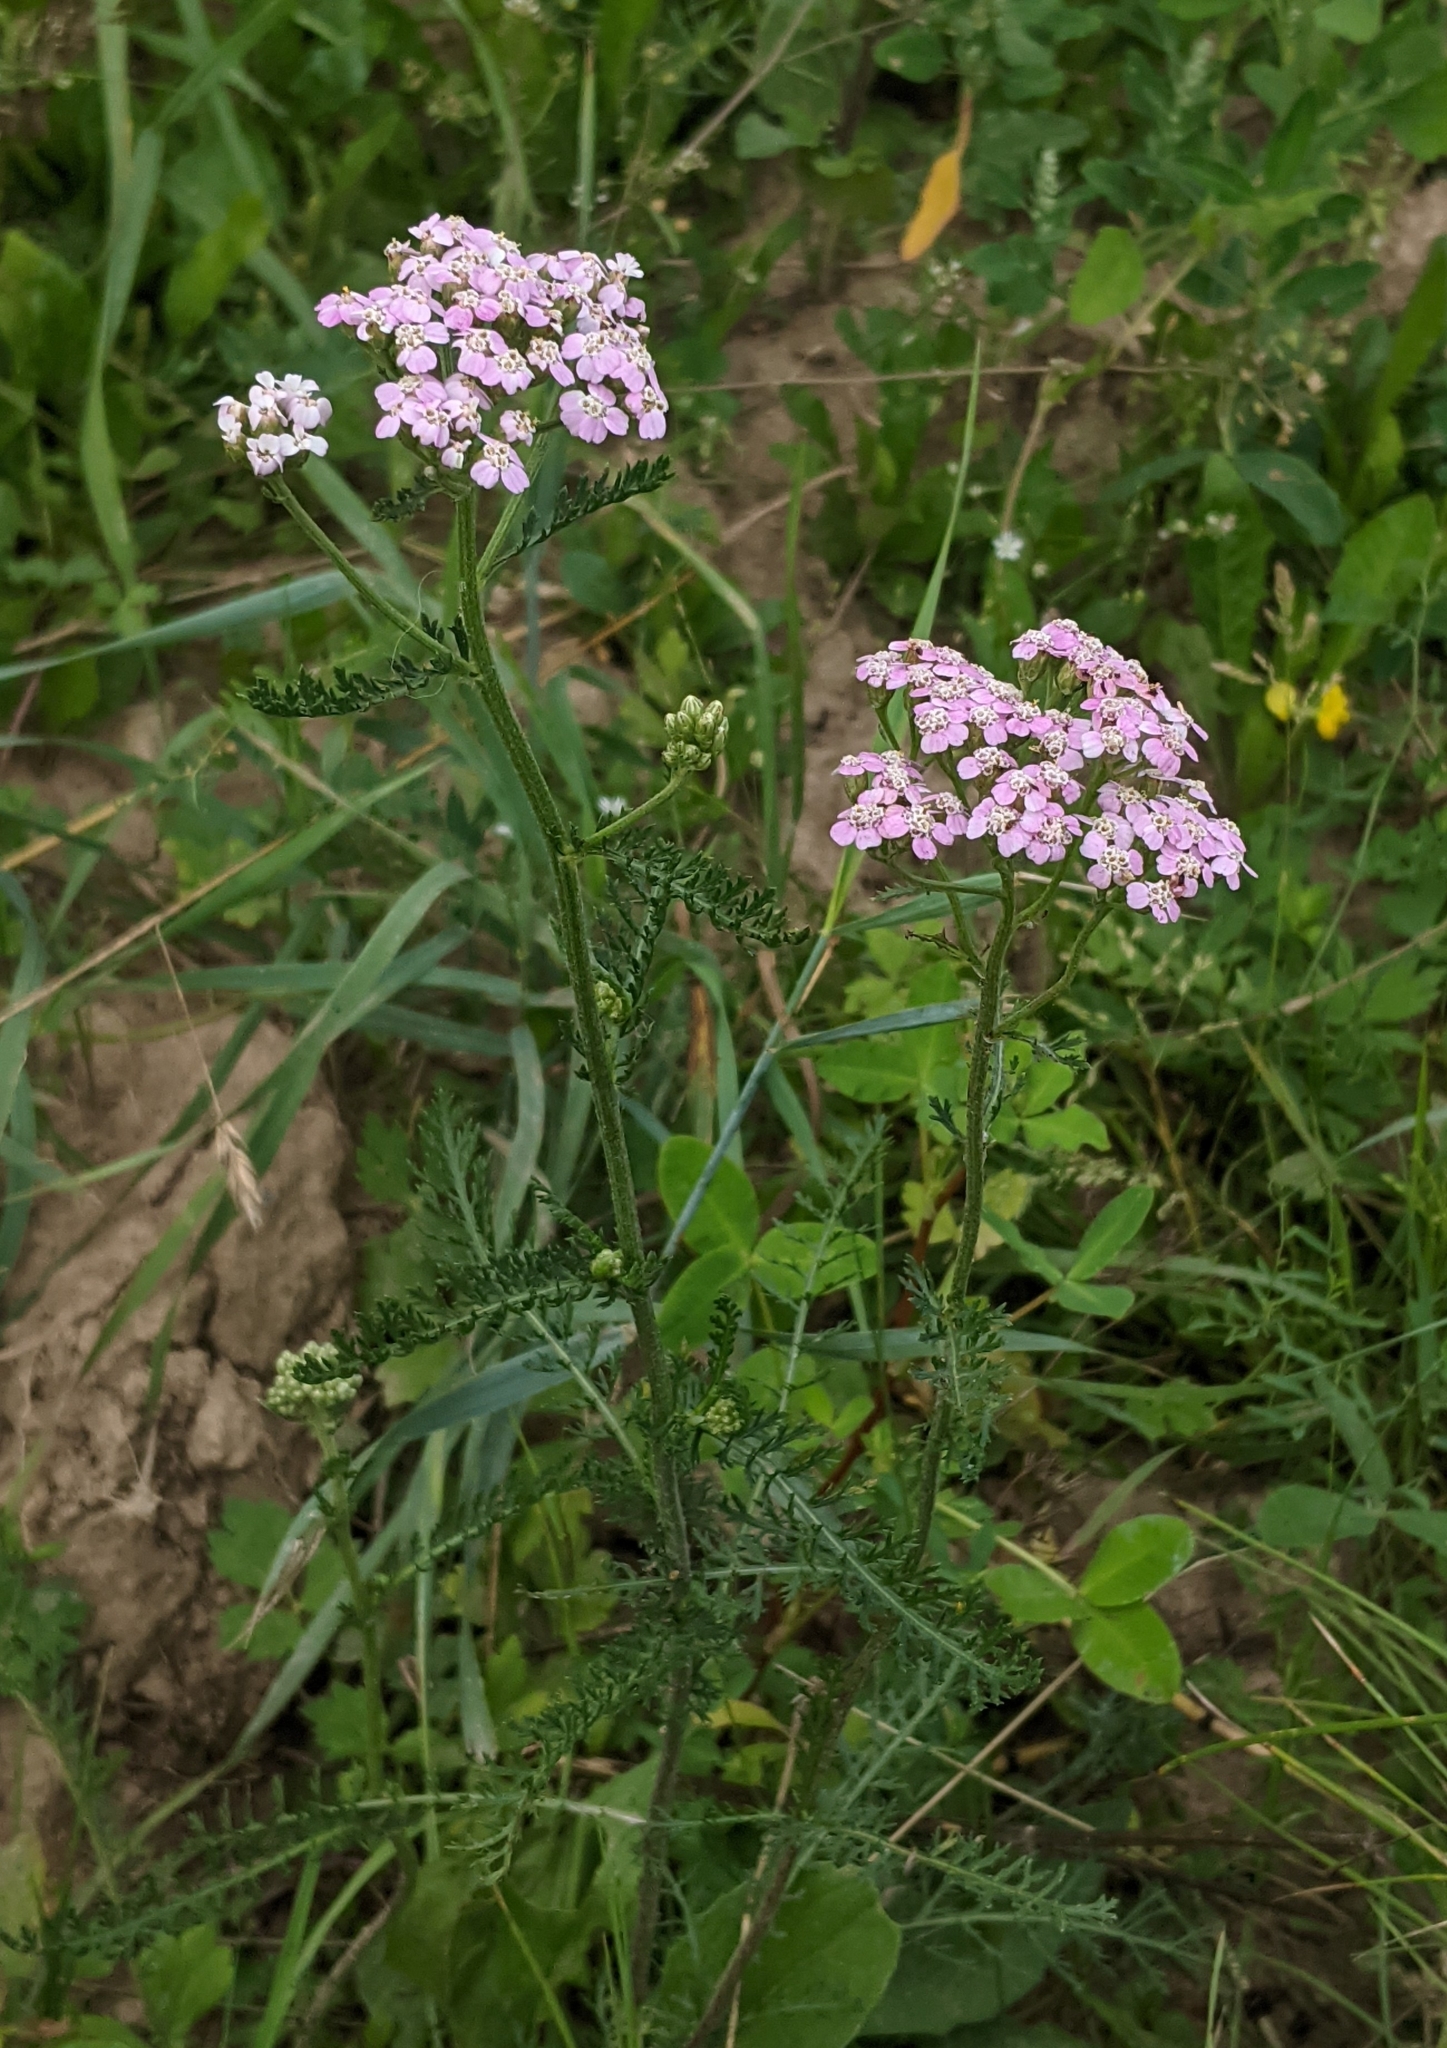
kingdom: Plantae
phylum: Tracheophyta
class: Magnoliopsida
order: Asterales
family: Asteraceae
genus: Achillea
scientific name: Achillea millefolium
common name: Yarrow
